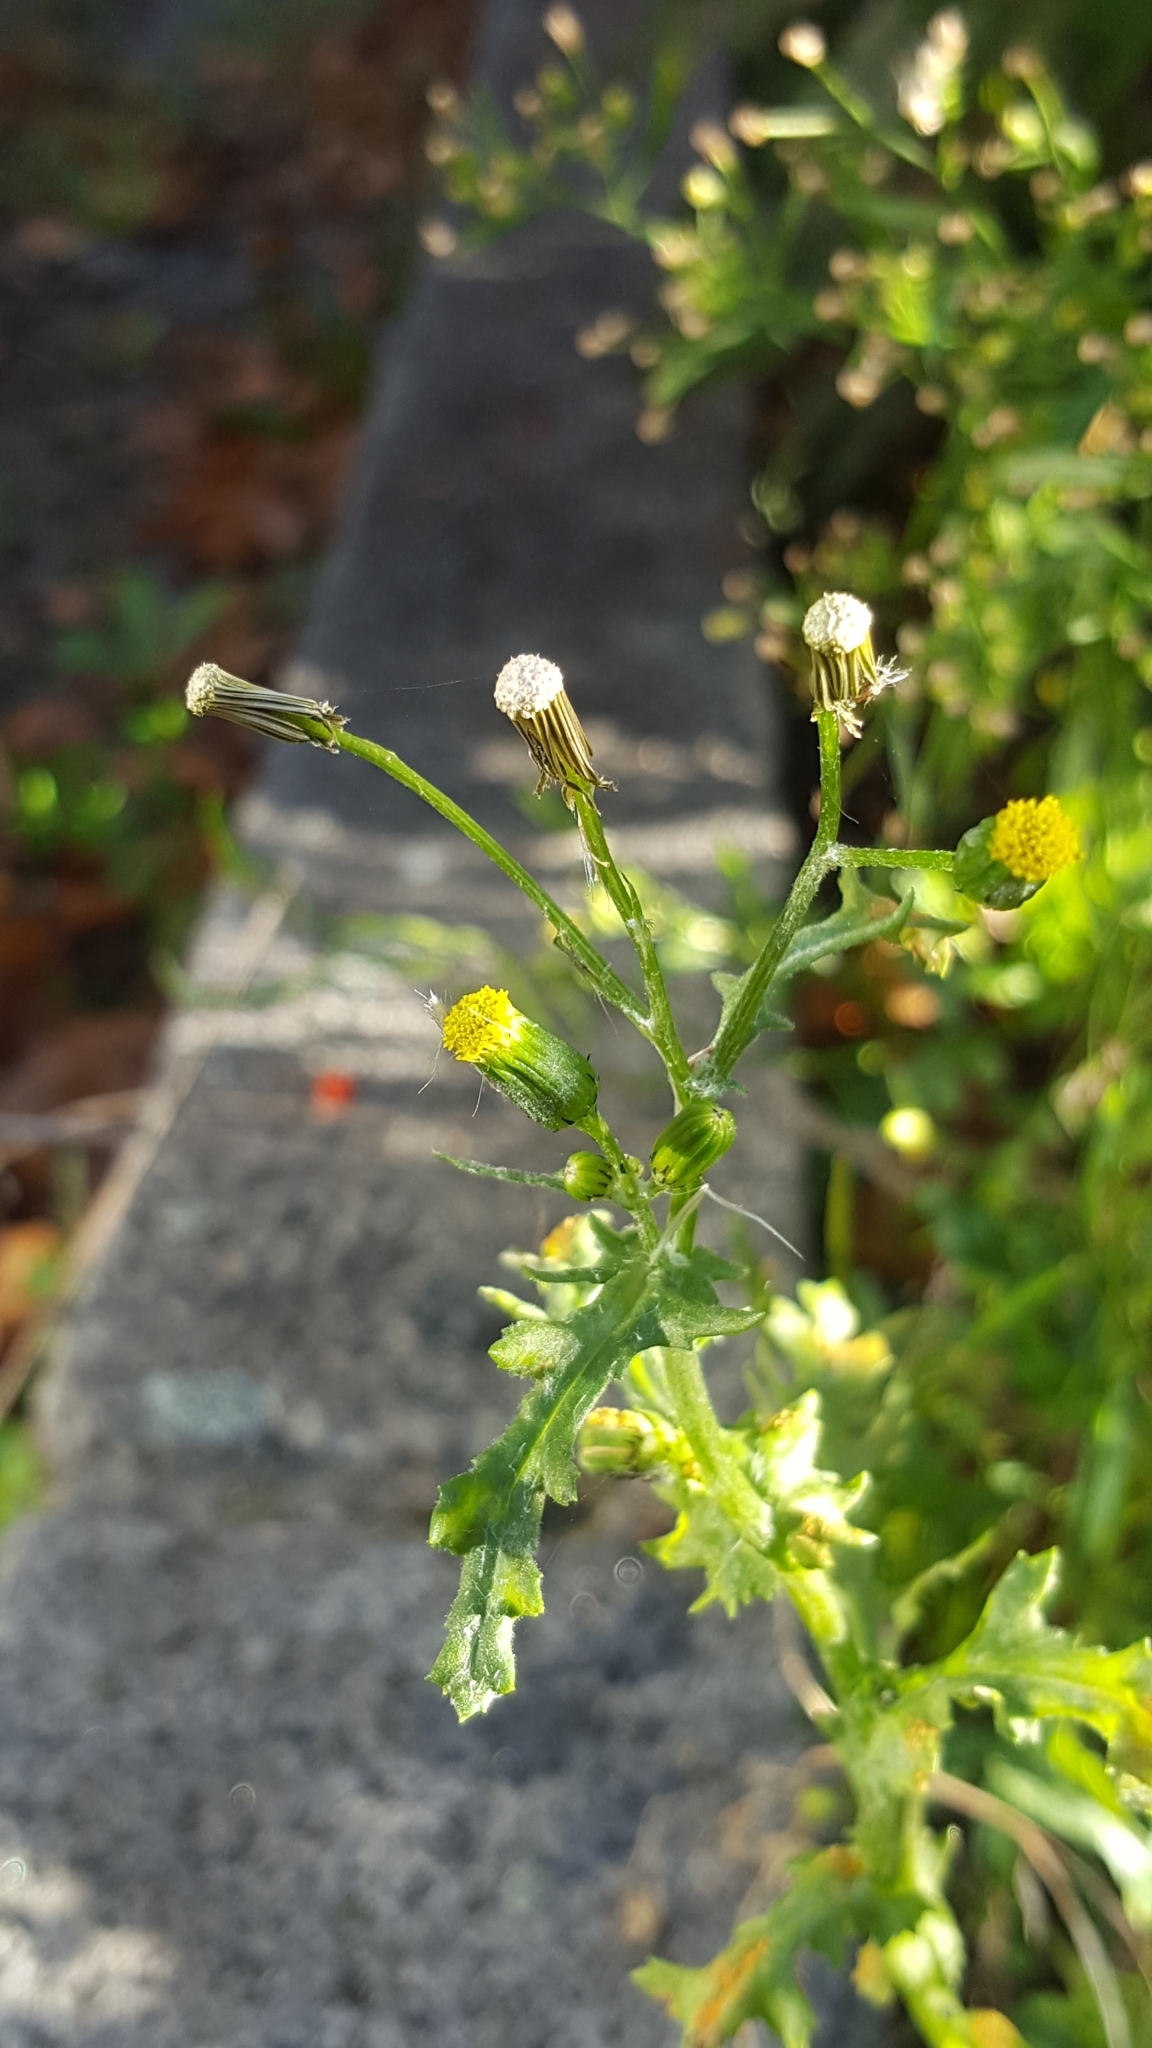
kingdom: Plantae
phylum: Tracheophyta
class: Magnoliopsida
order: Asterales
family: Asteraceae
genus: Senecio
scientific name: Senecio vulgaris
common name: Old-man-in-the-spring
